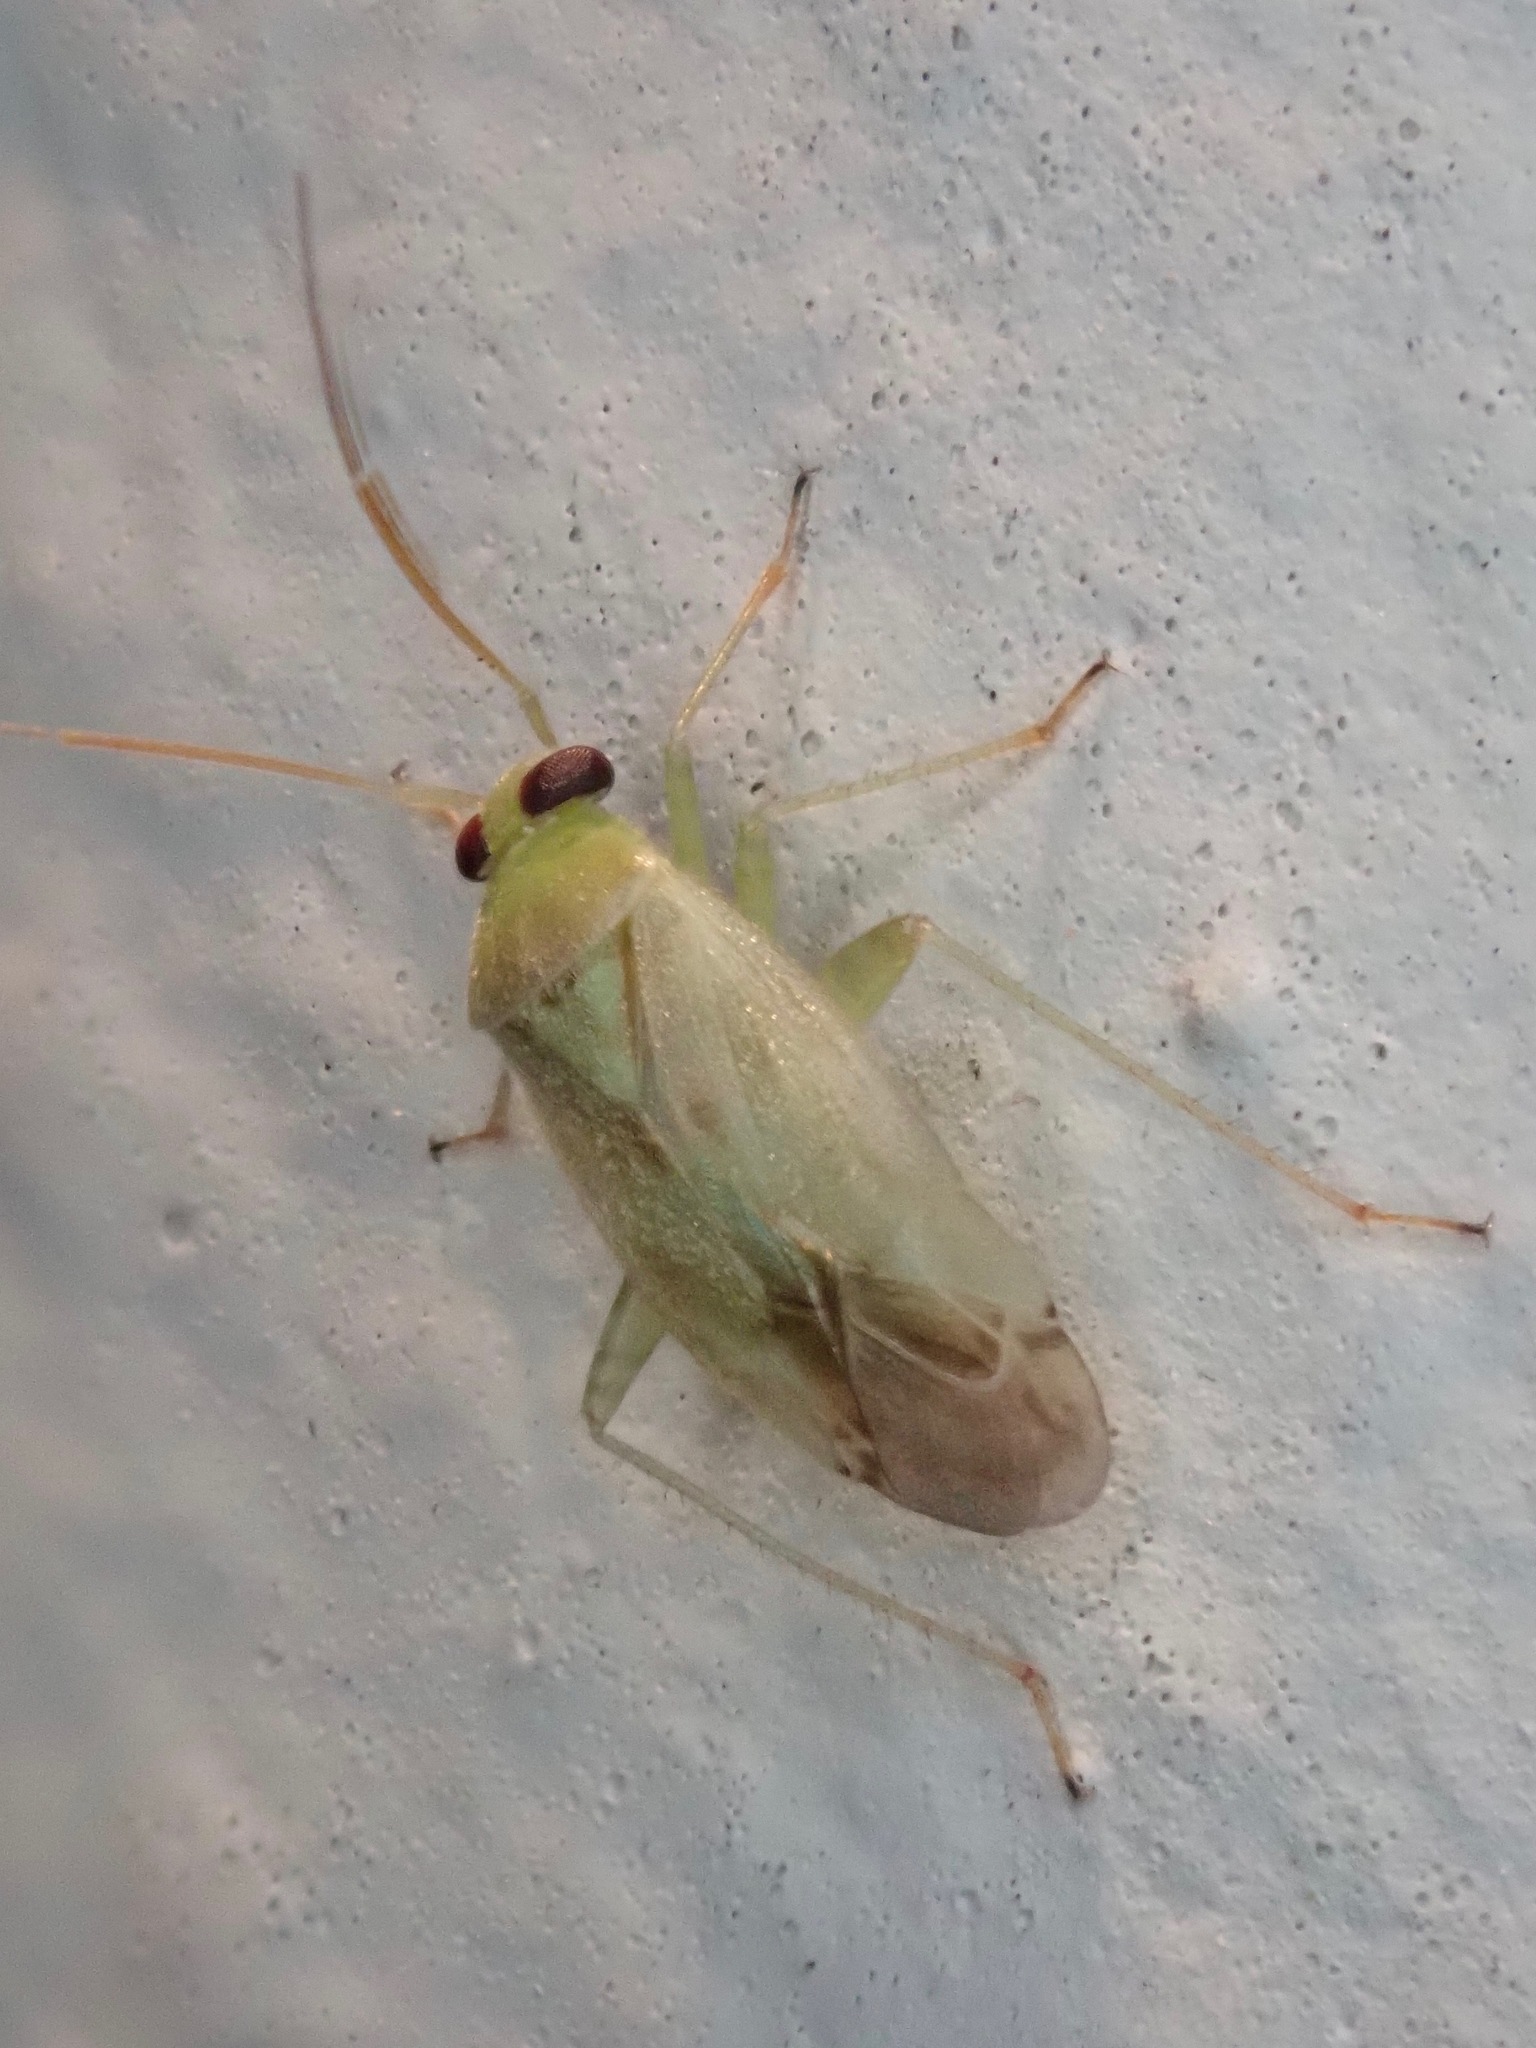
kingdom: Animalia
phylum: Arthropoda
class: Insecta
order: Hemiptera
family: Miridae
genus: Taylorilygus
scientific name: Taylorilygus apicalis
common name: Plant bug
